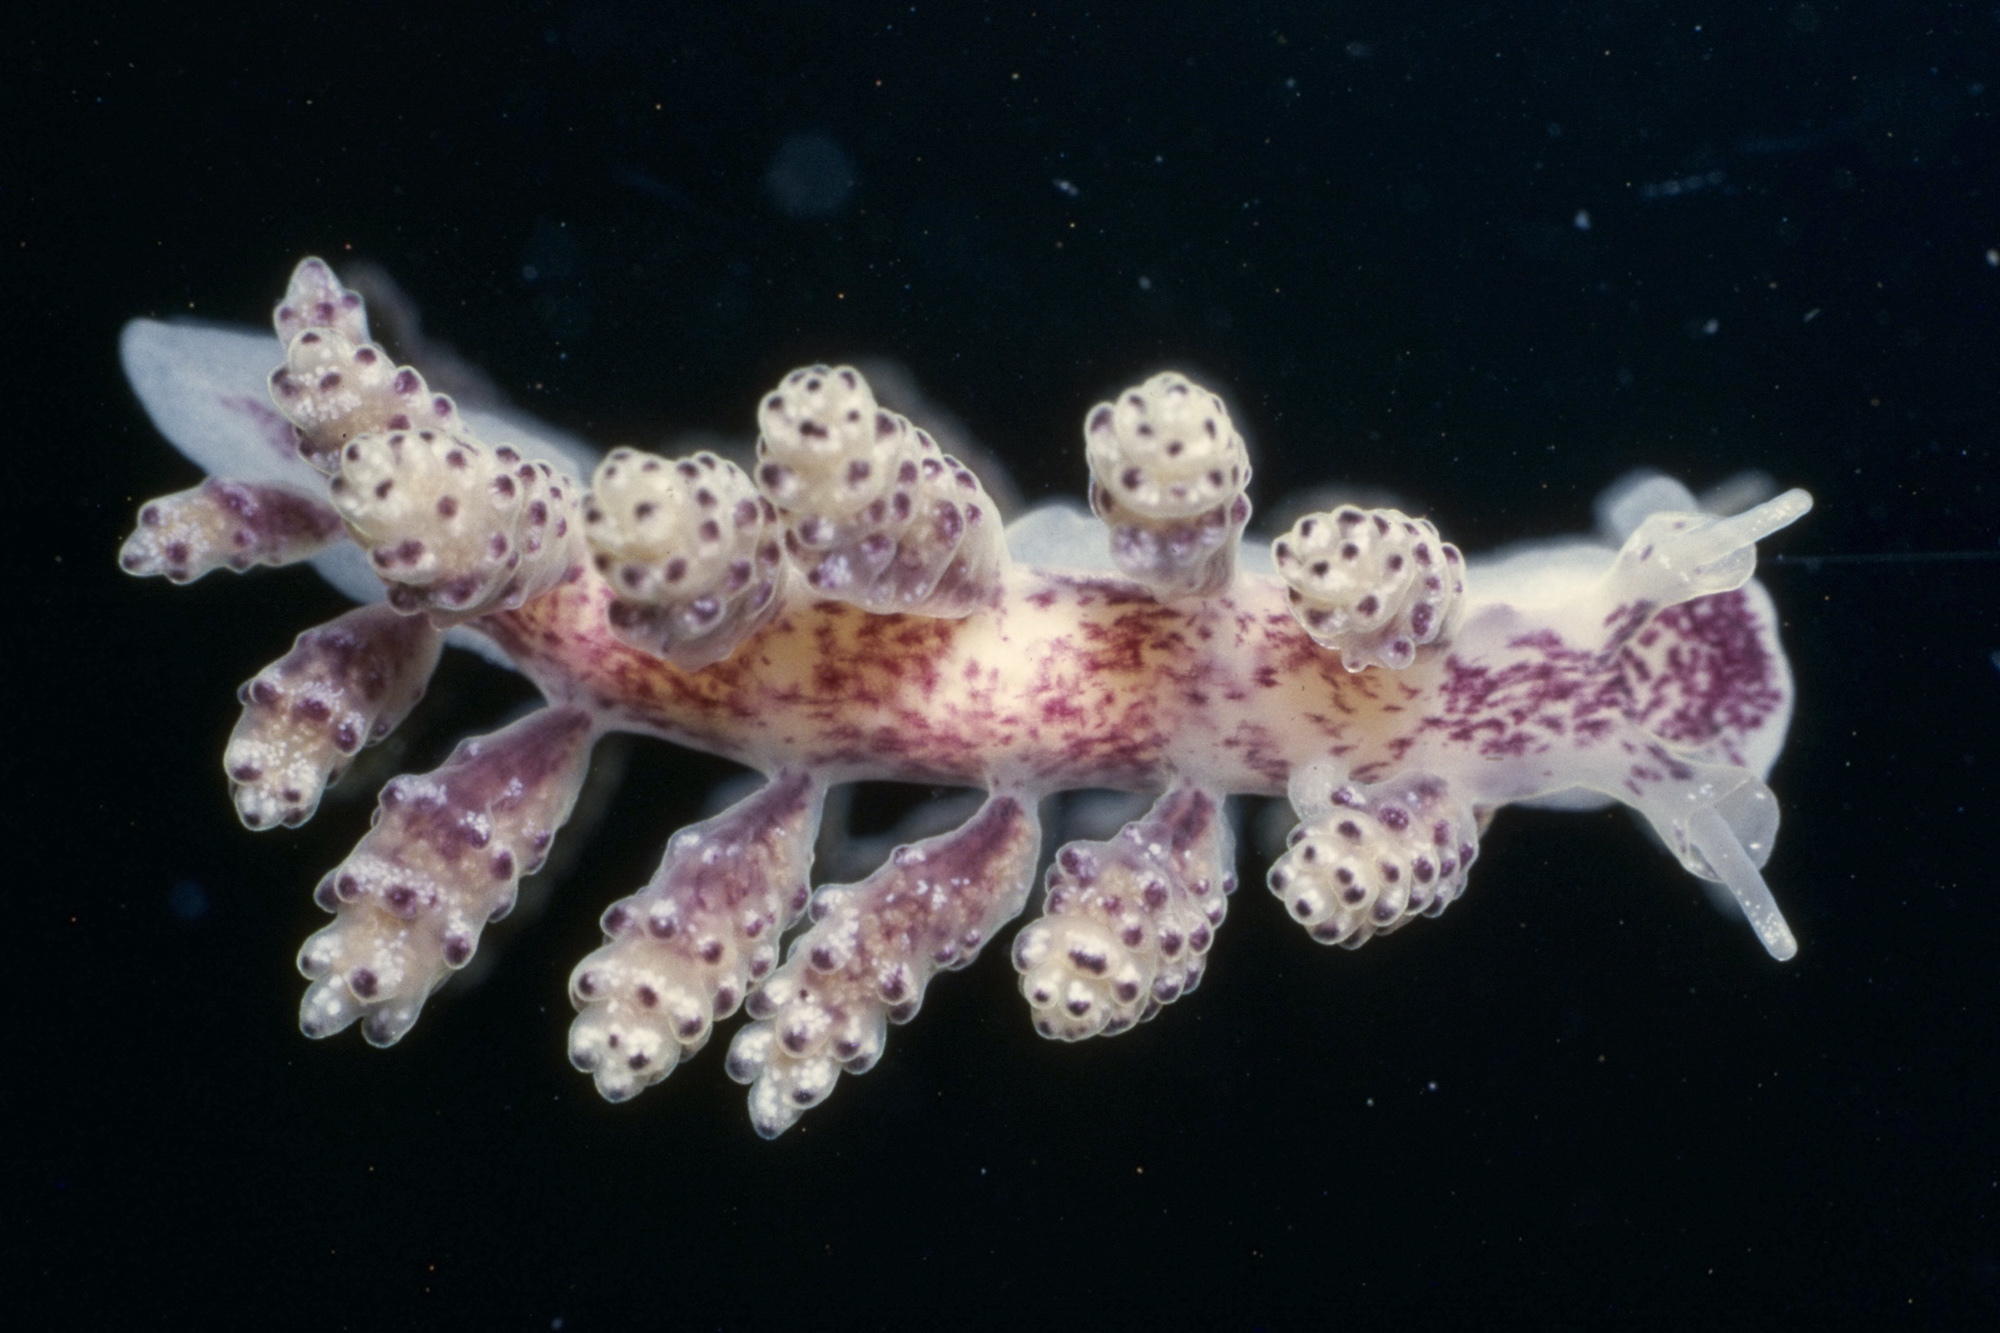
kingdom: Animalia
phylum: Mollusca
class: Gastropoda
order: Nudibranchia
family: Dotidae
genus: Doto
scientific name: Doto coronata
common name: Coronate doto
